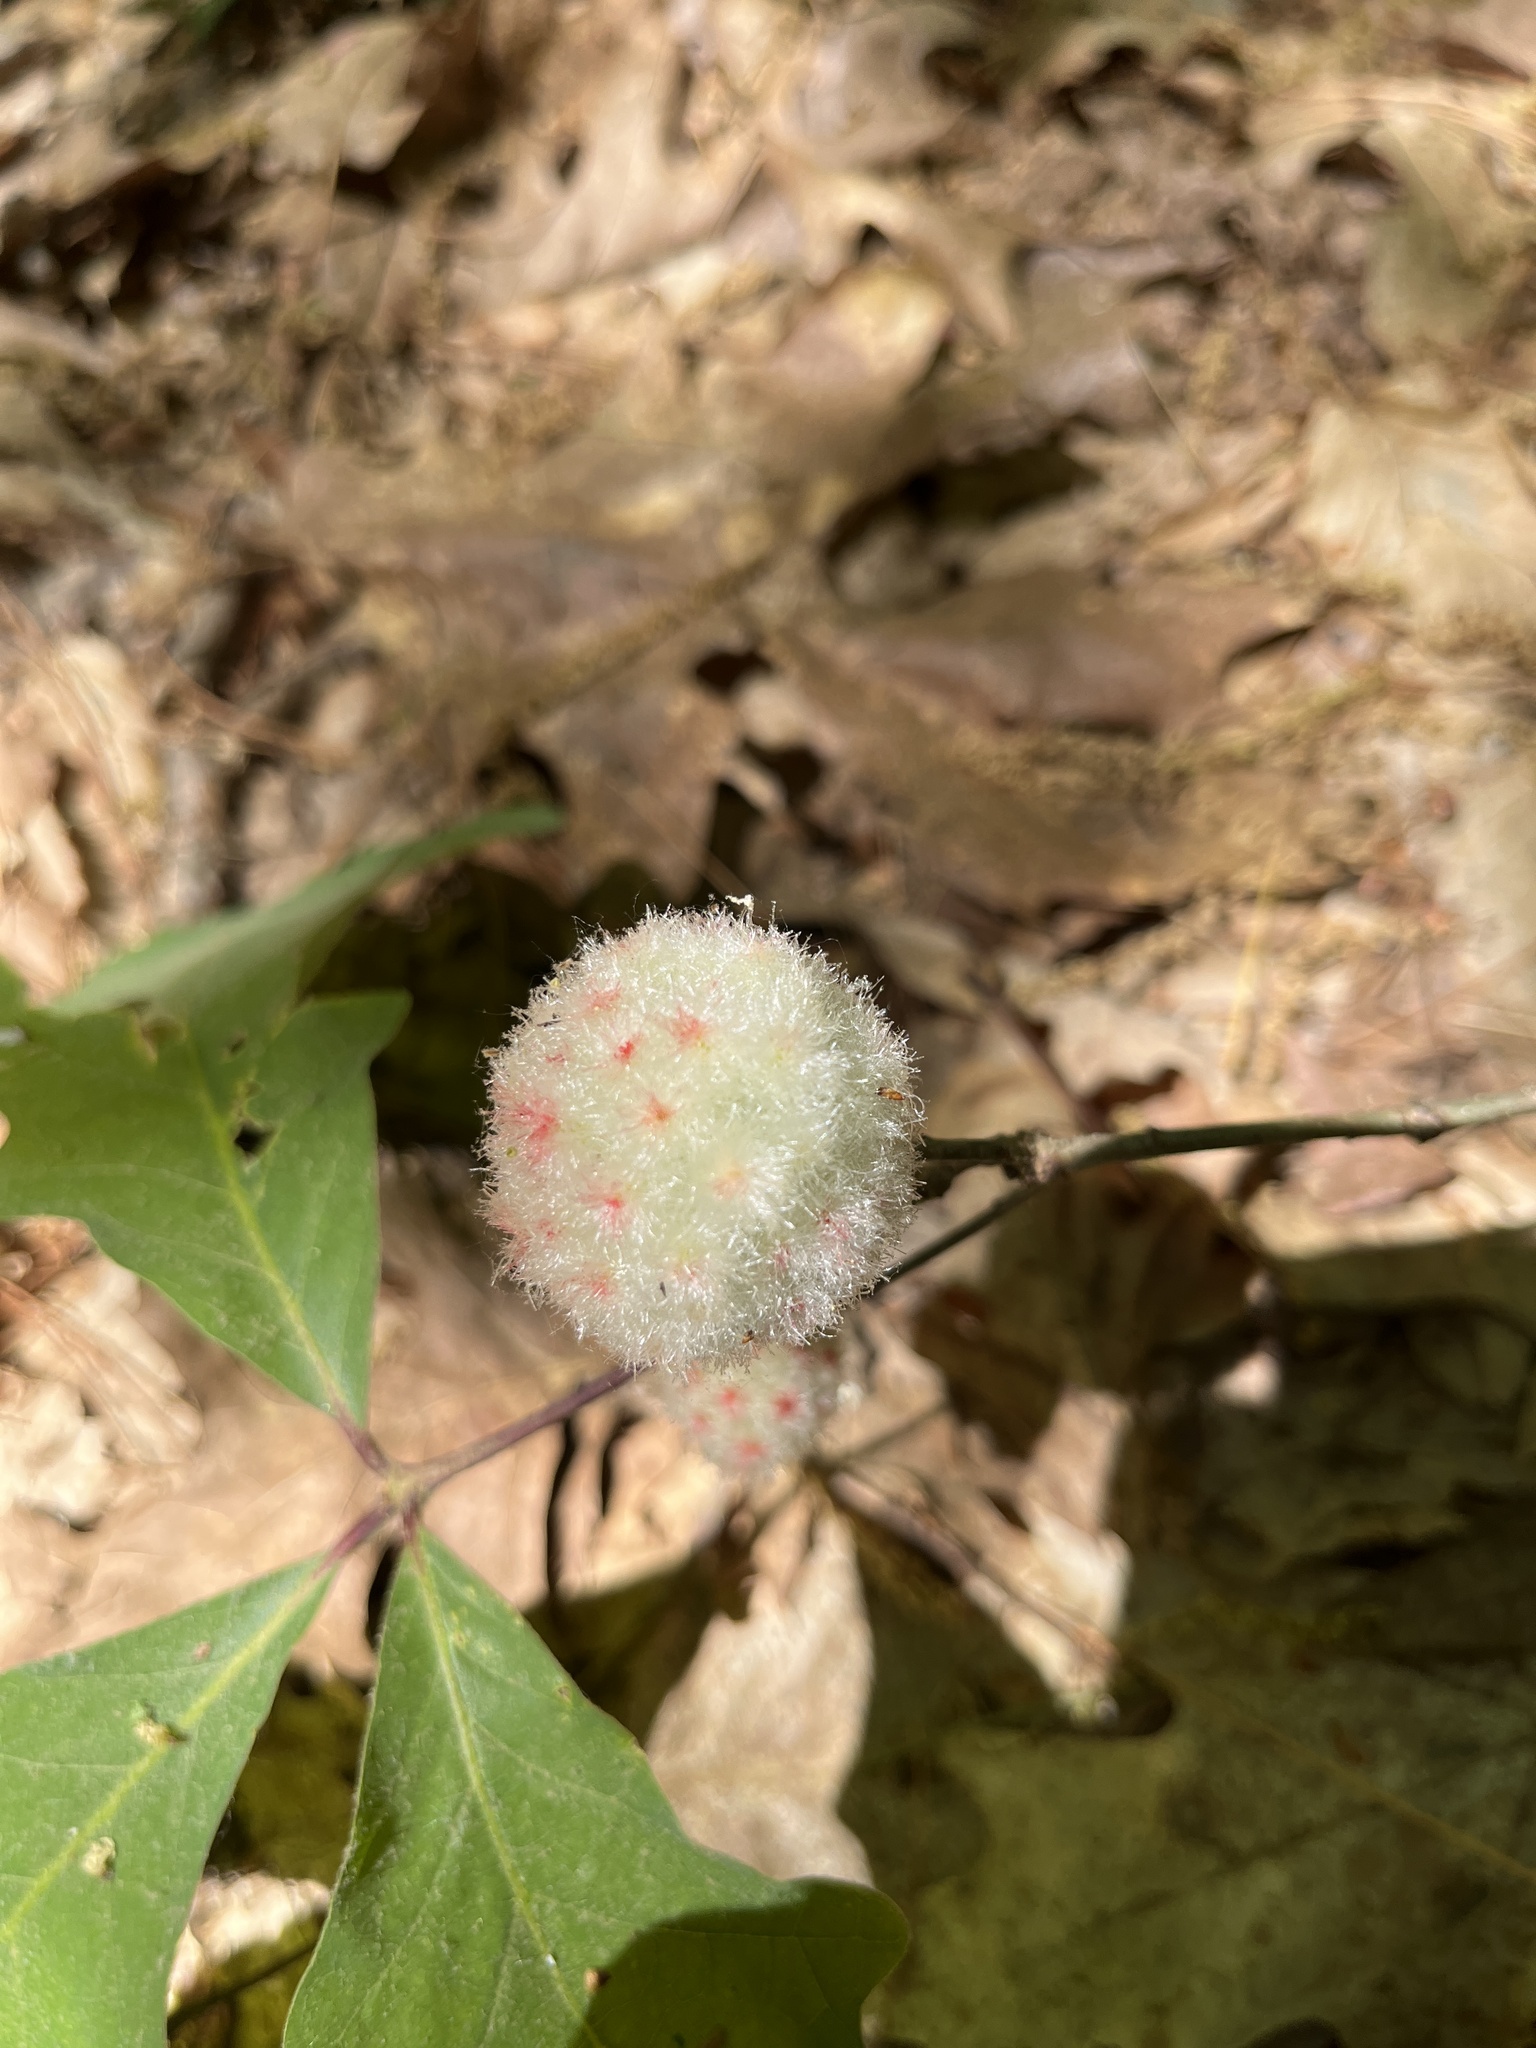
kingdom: Animalia
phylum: Arthropoda
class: Insecta
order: Hymenoptera
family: Cynipidae
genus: Callirhytis
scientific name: Callirhytis
